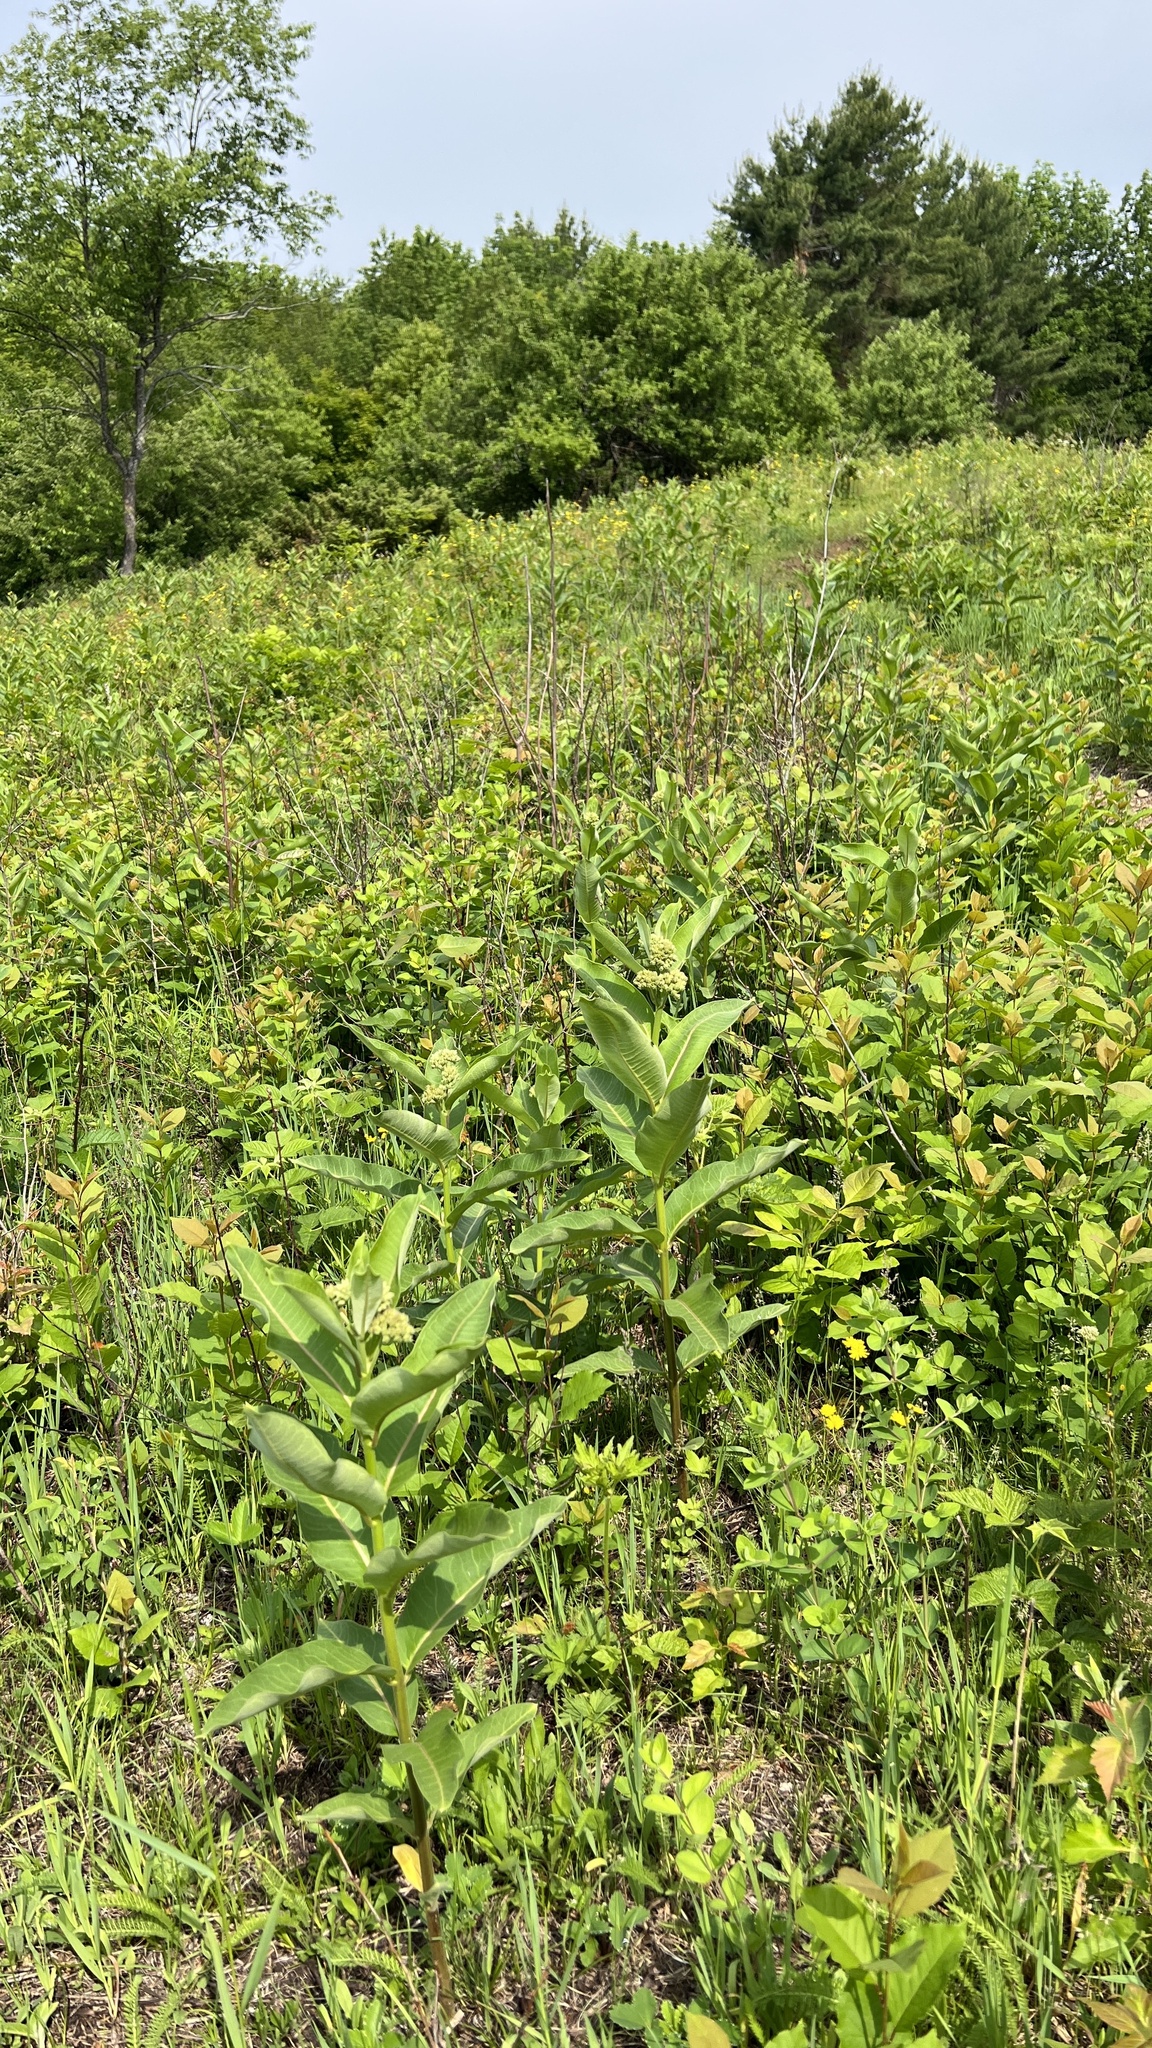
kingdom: Plantae
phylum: Tracheophyta
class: Magnoliopsida
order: Gentianales
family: Apocynaceae
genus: Asclepias
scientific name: Asclepias syriaca
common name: Common milkweed
